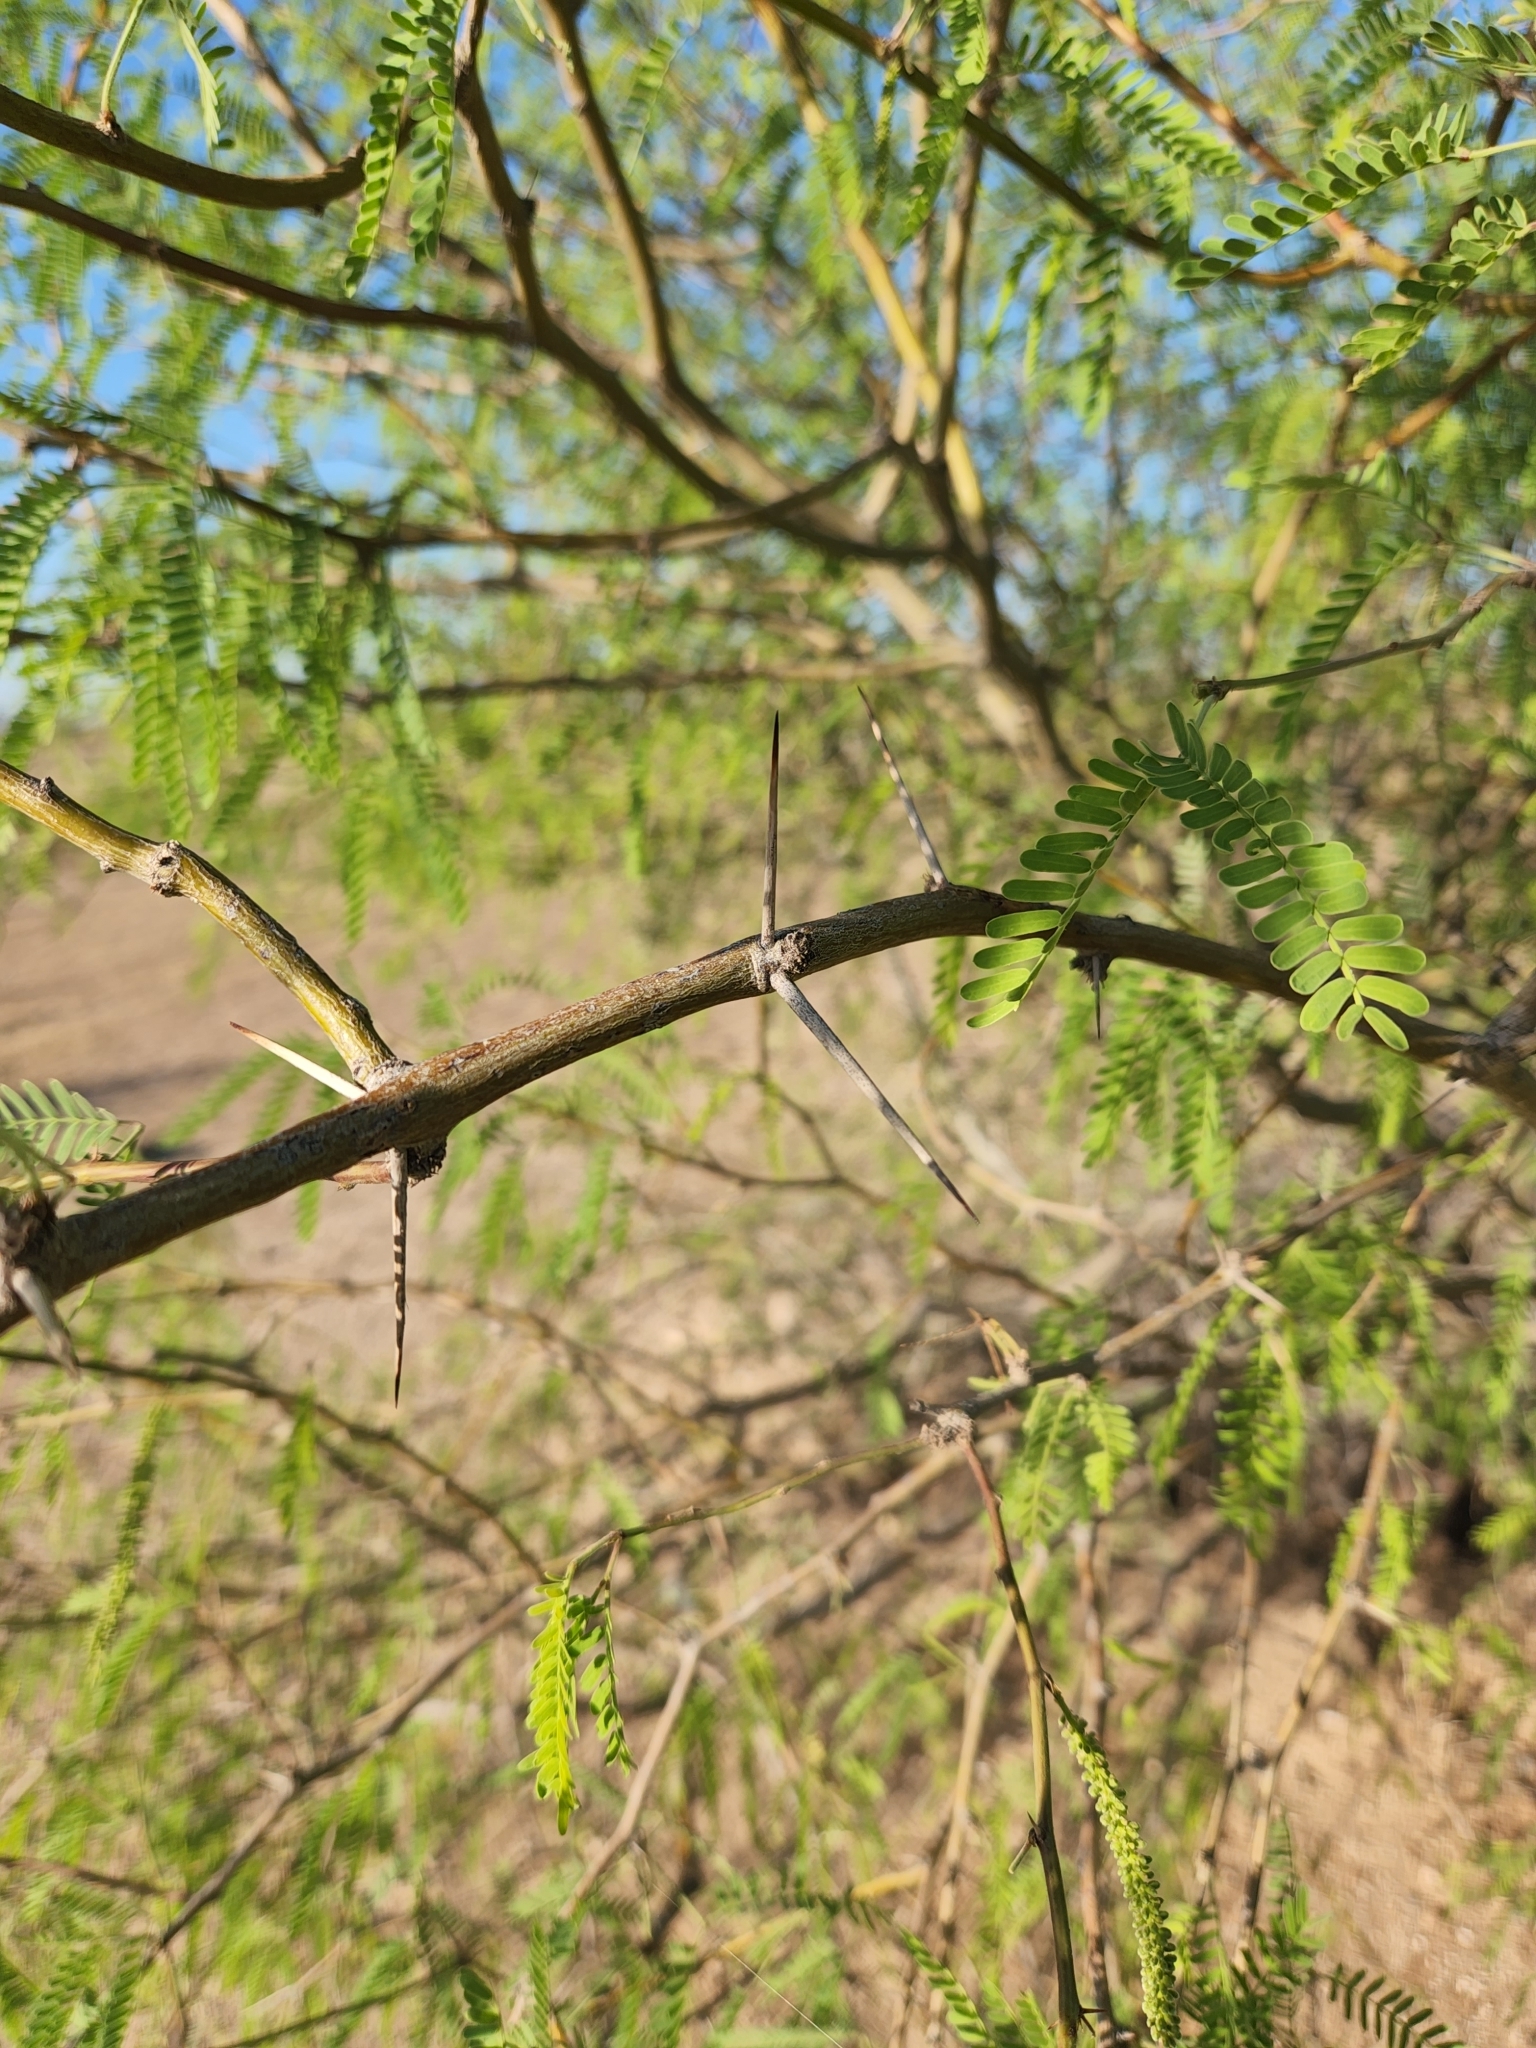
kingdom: Plantae
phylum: Tracheophyta
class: Magnoliopsida
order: Fabales
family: Fabaceae
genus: Prosopis
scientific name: Prosopis velutina
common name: Velvet mesquite
